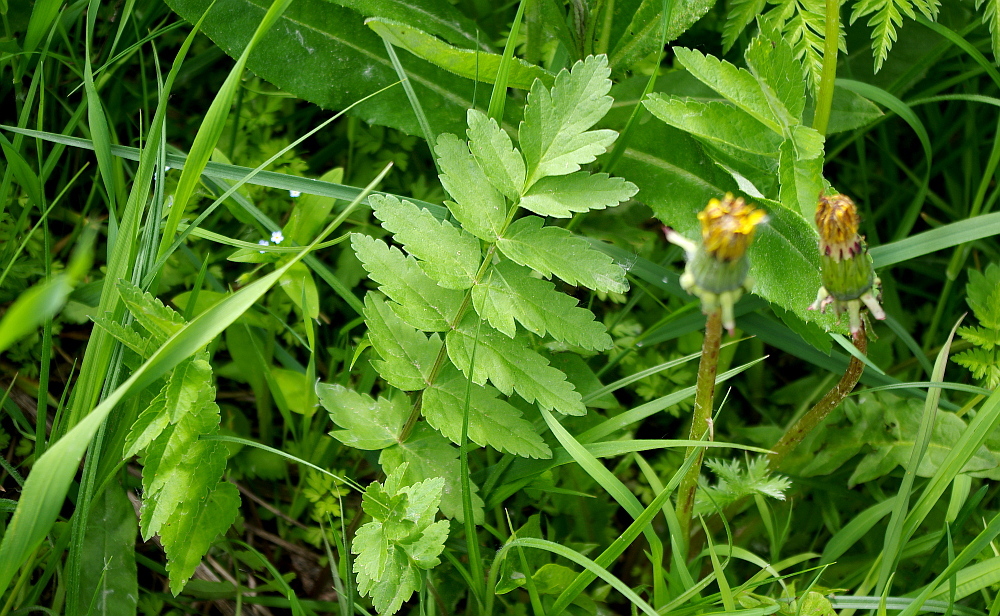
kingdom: Plantae
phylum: Tracheophyta
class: Magnoliopsida
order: Apiales
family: Apiaceae
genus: Pastinaca
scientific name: Pastinaca sativa
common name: Wild parsnip
